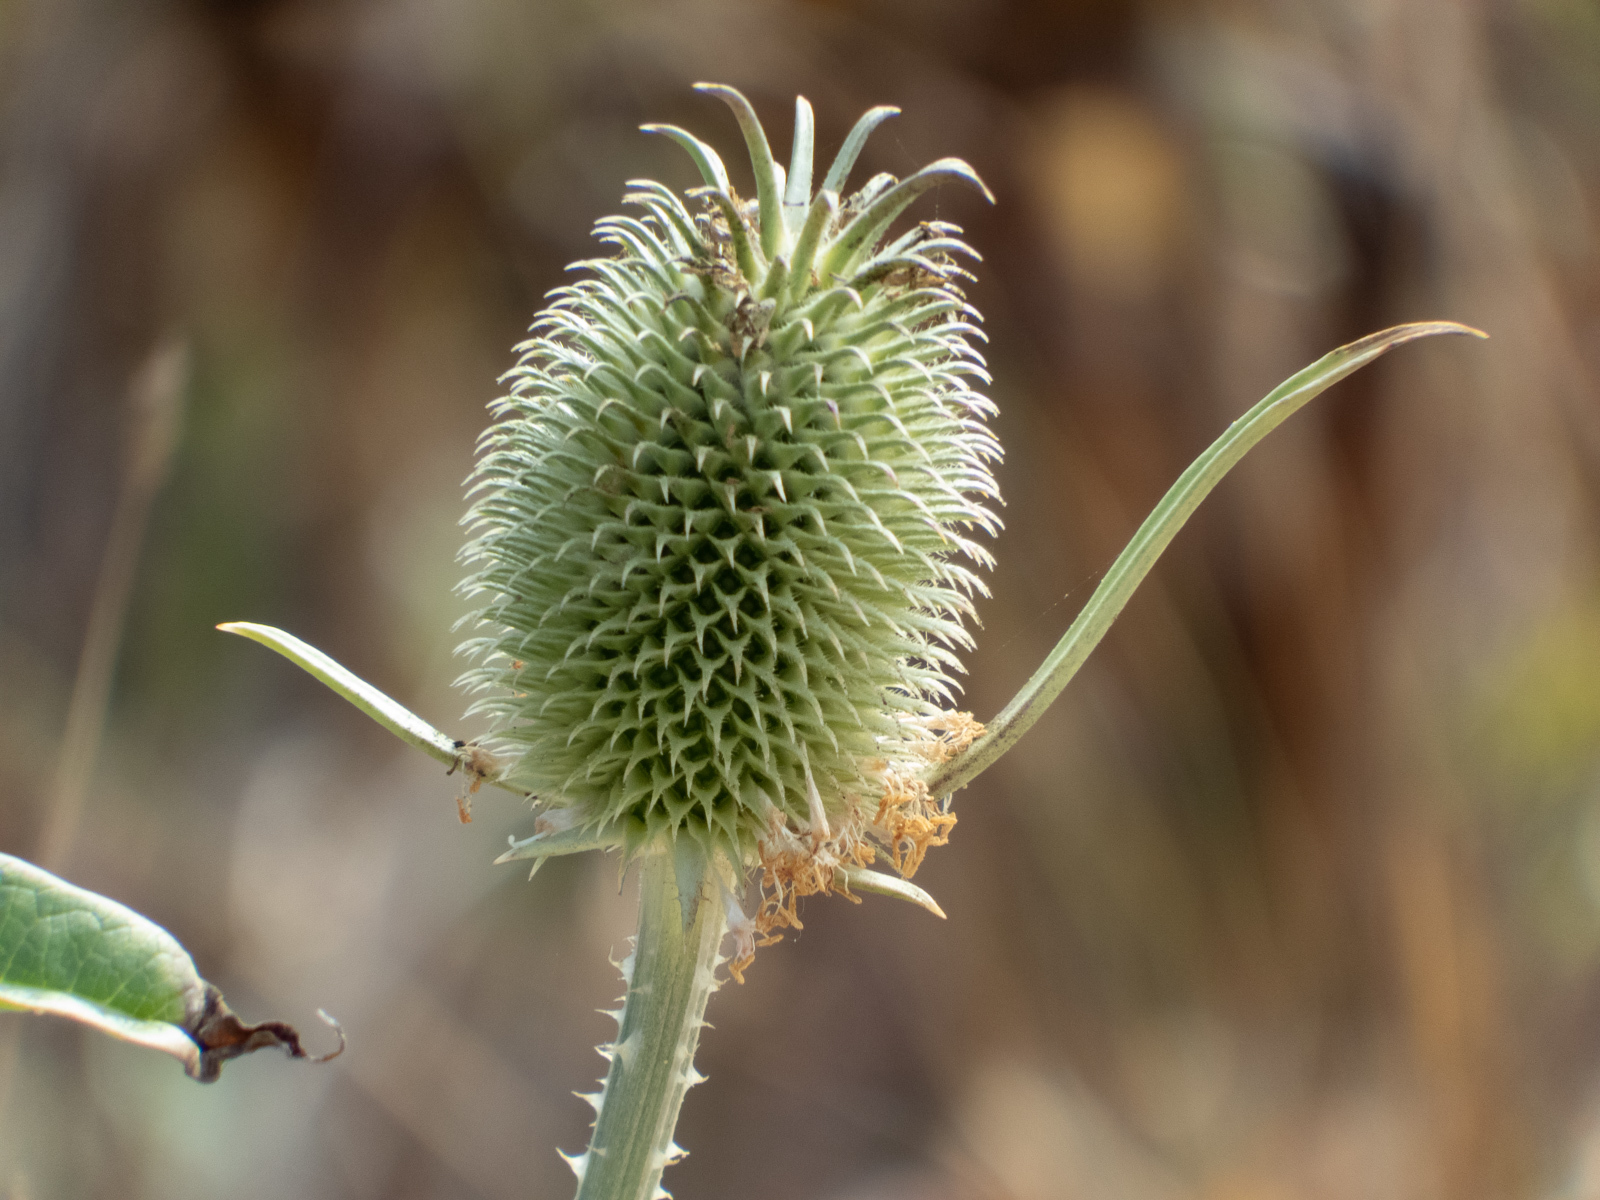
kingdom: Plantae
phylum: Tracheophyta
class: Magnoliopsida
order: Dipsacales
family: Caprifoliaceae
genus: Dipsacus
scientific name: Dipsacus sativus
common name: Fuller's teasel
